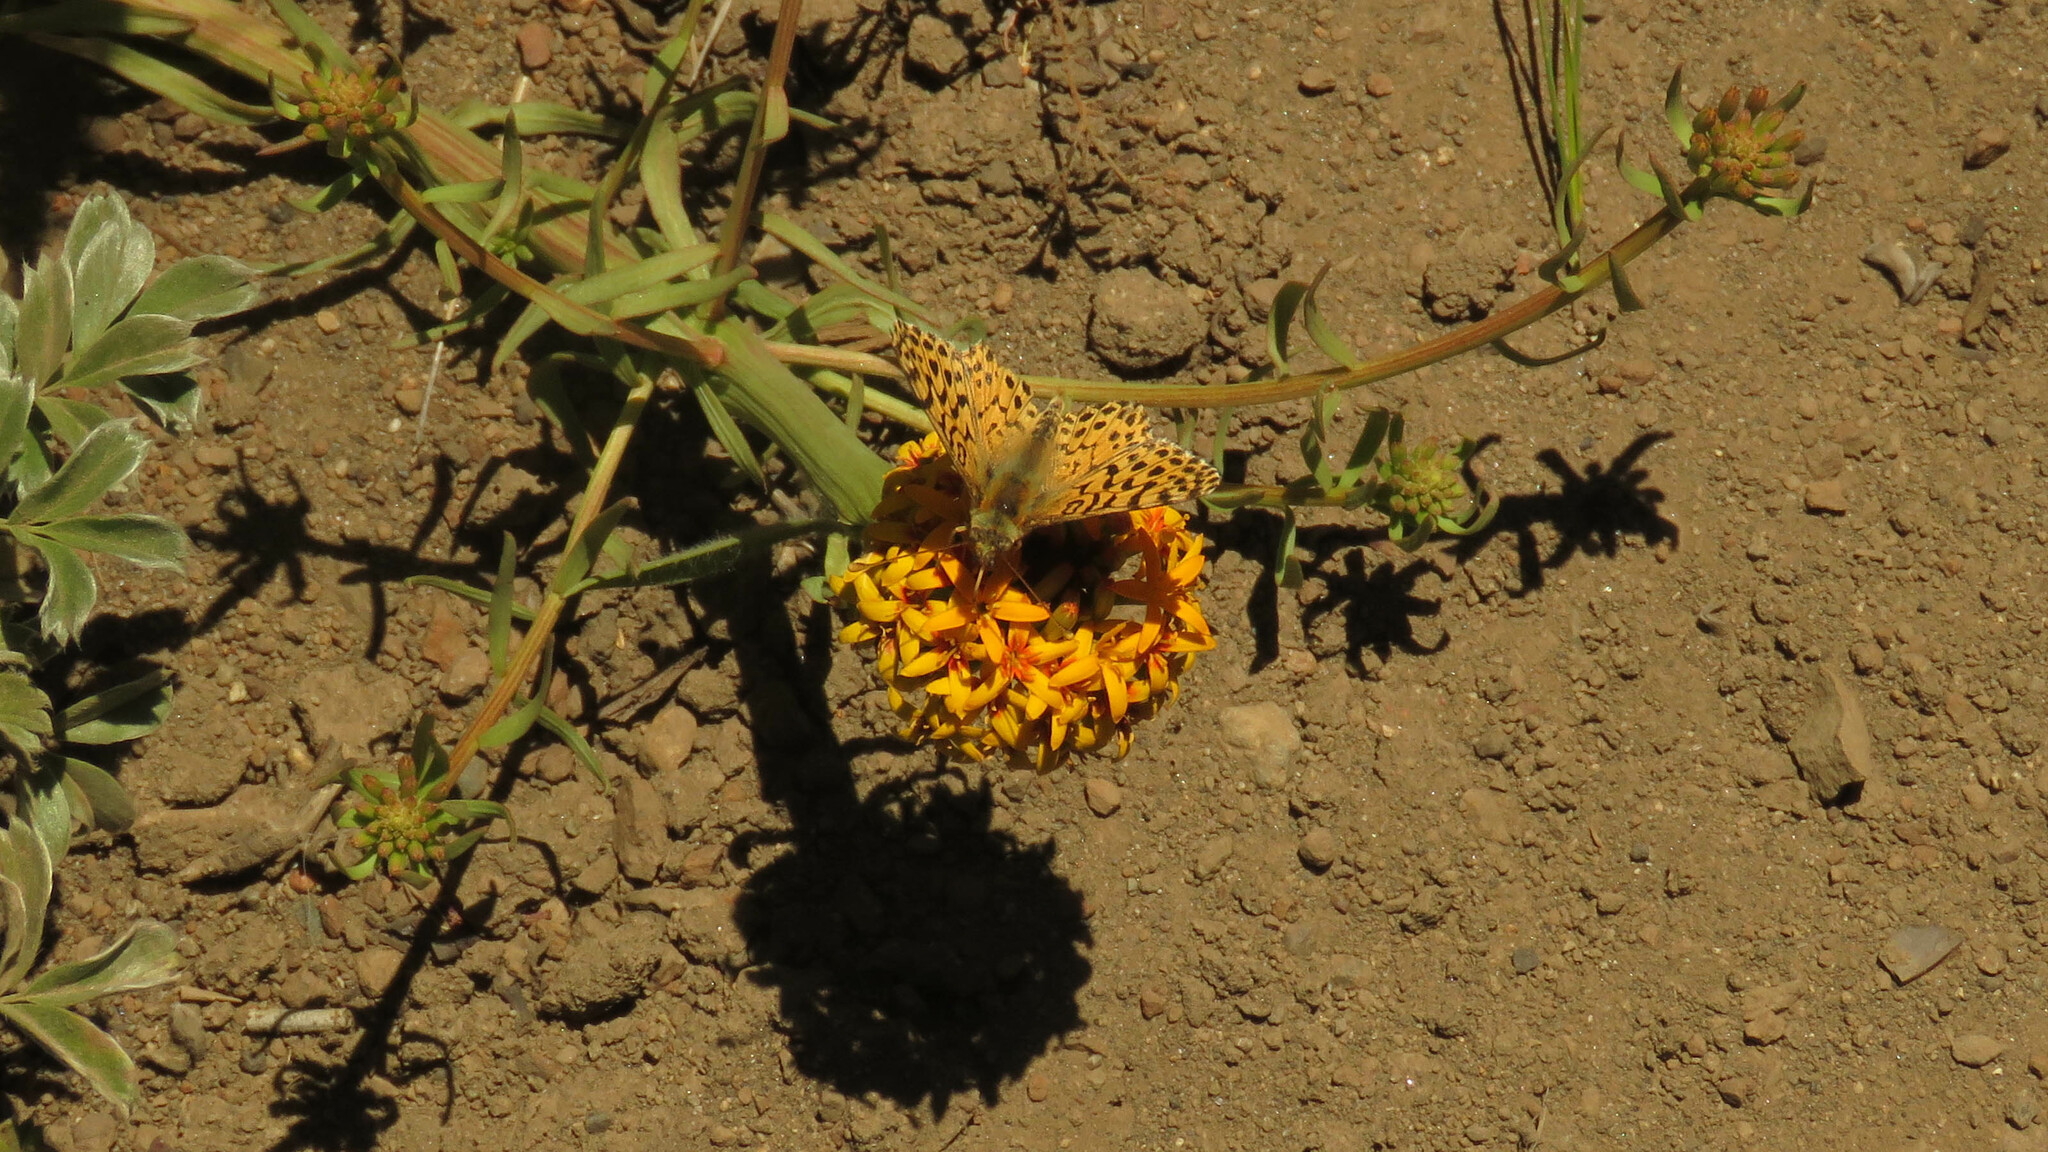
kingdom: Animalia
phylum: Arthropoda
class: Insecta
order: Lepidoptera
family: Nymphalidae
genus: Issoria
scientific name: Issoria Yramea lathonoides
